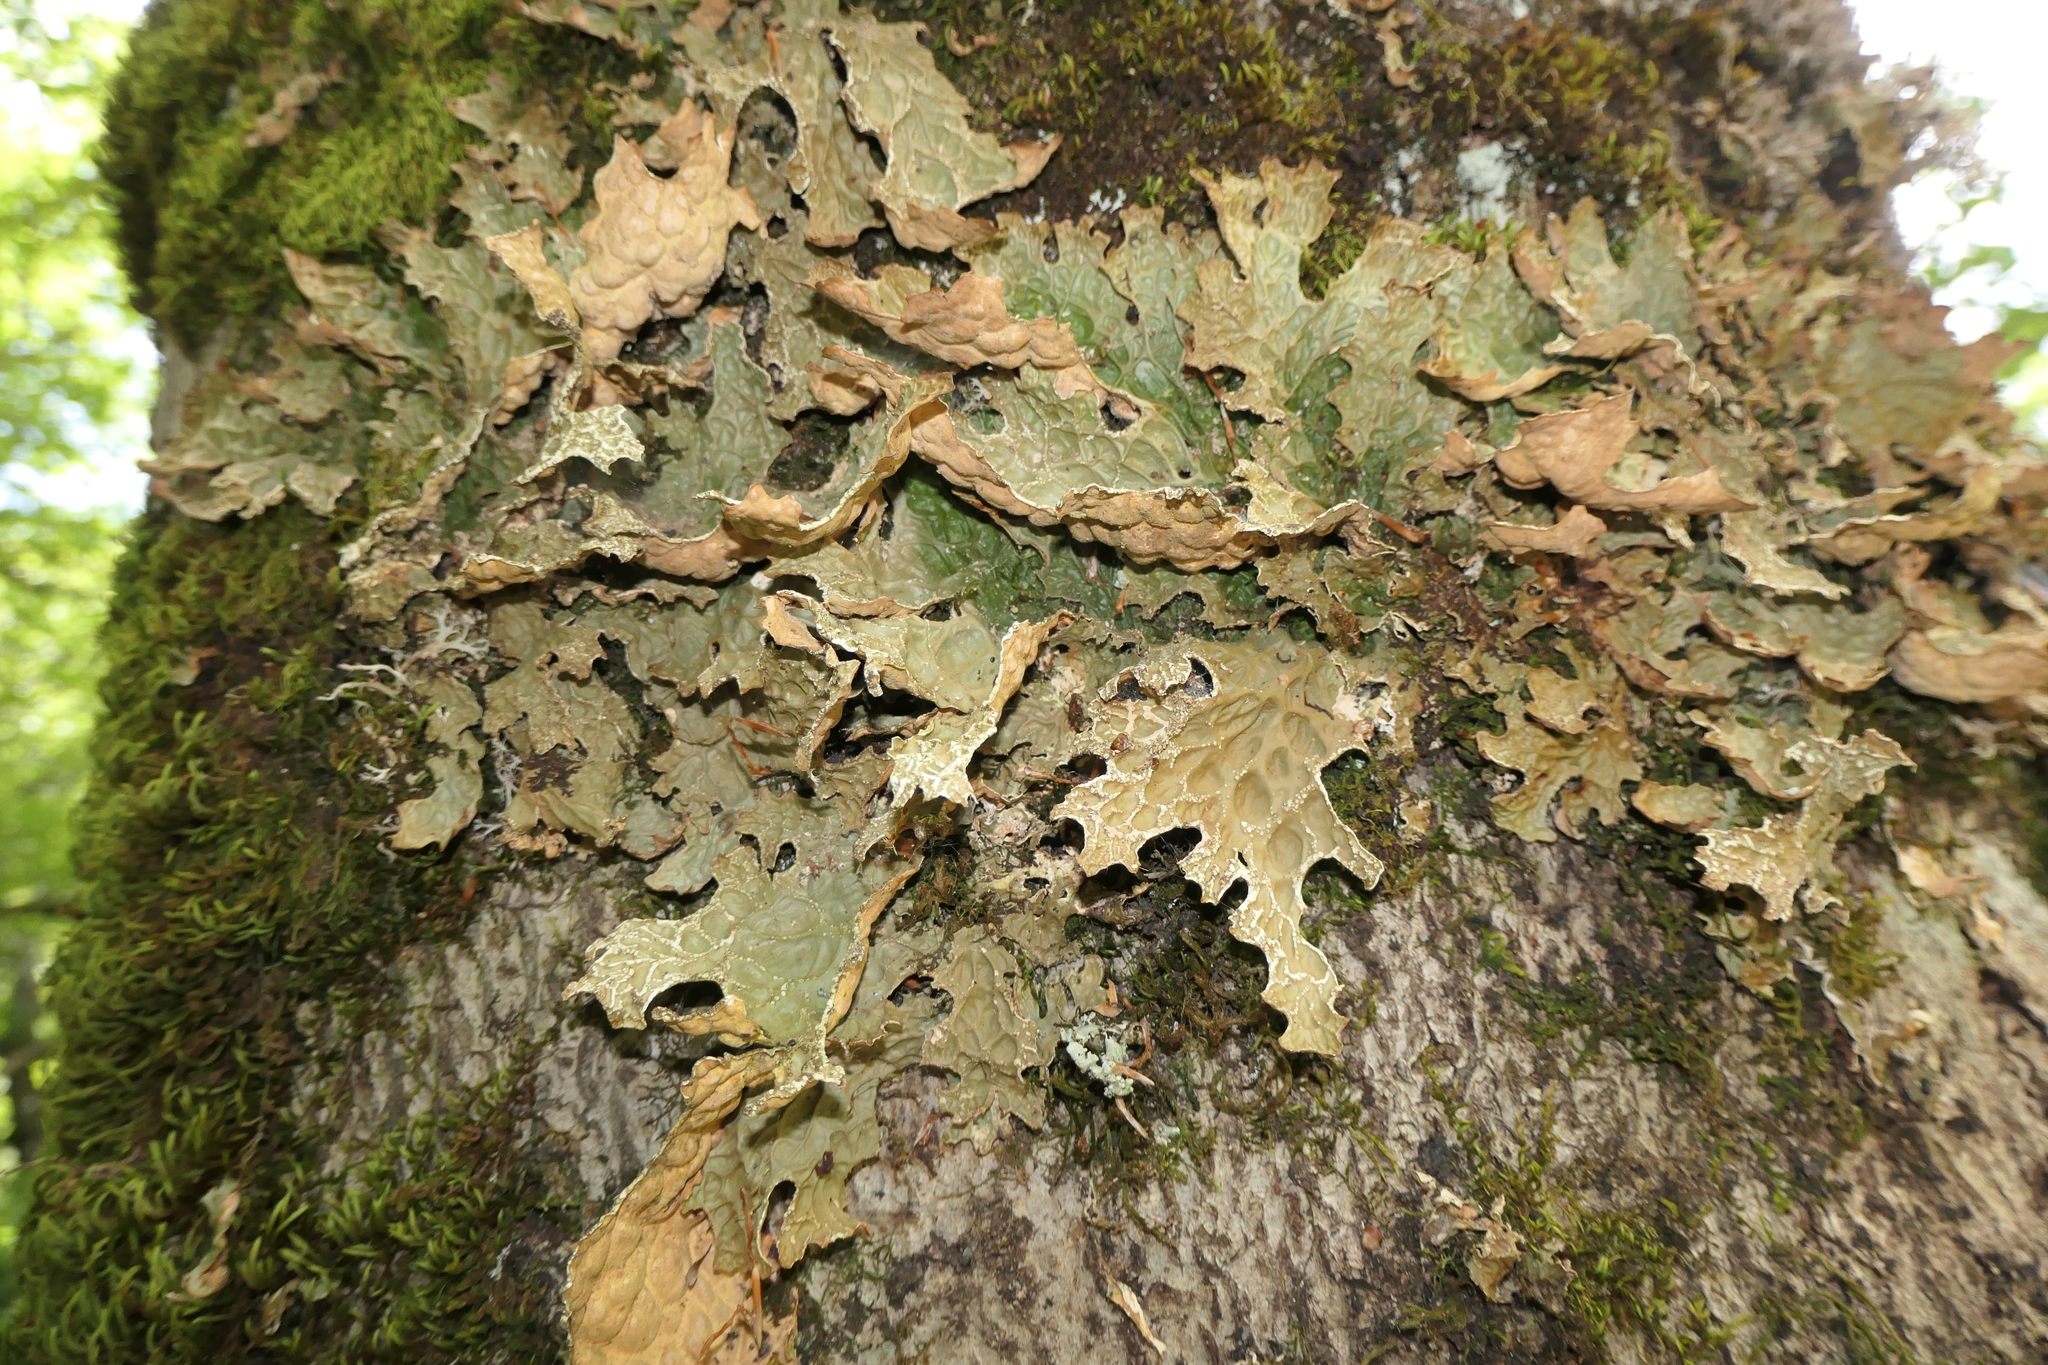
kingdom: Fungi
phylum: Ascomycota
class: Lecanoromycetes
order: Peltigerales
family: Lobariaceae
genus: Lobaria
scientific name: Lobaria pulmonaria
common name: Lungwort
